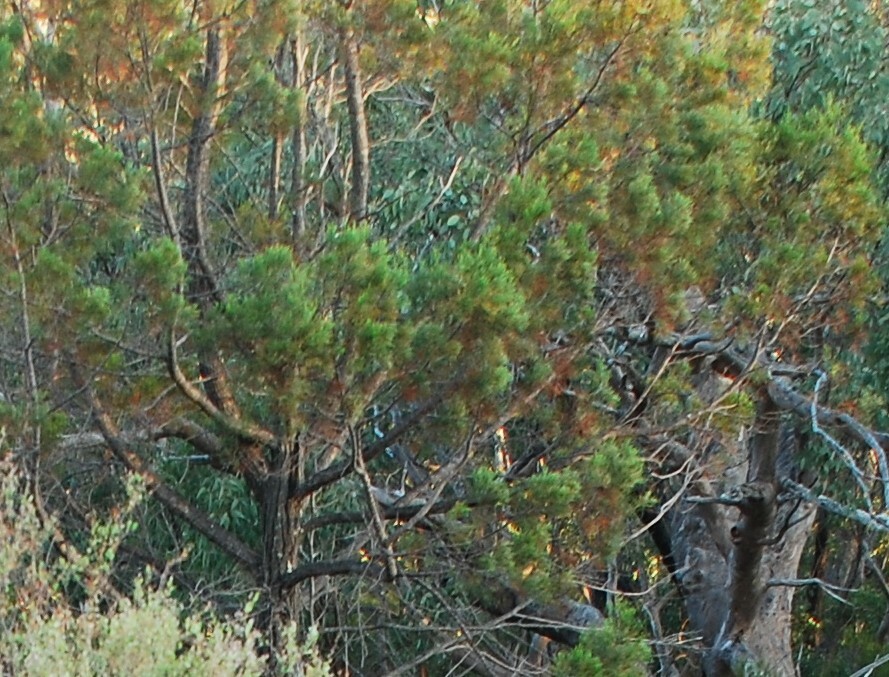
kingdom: Plantae
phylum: Tracheophyta
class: Pinopsida
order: Pinales
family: Cupressaceae
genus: Callitris
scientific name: Callitris endlicheri
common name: Black cypress-pine
